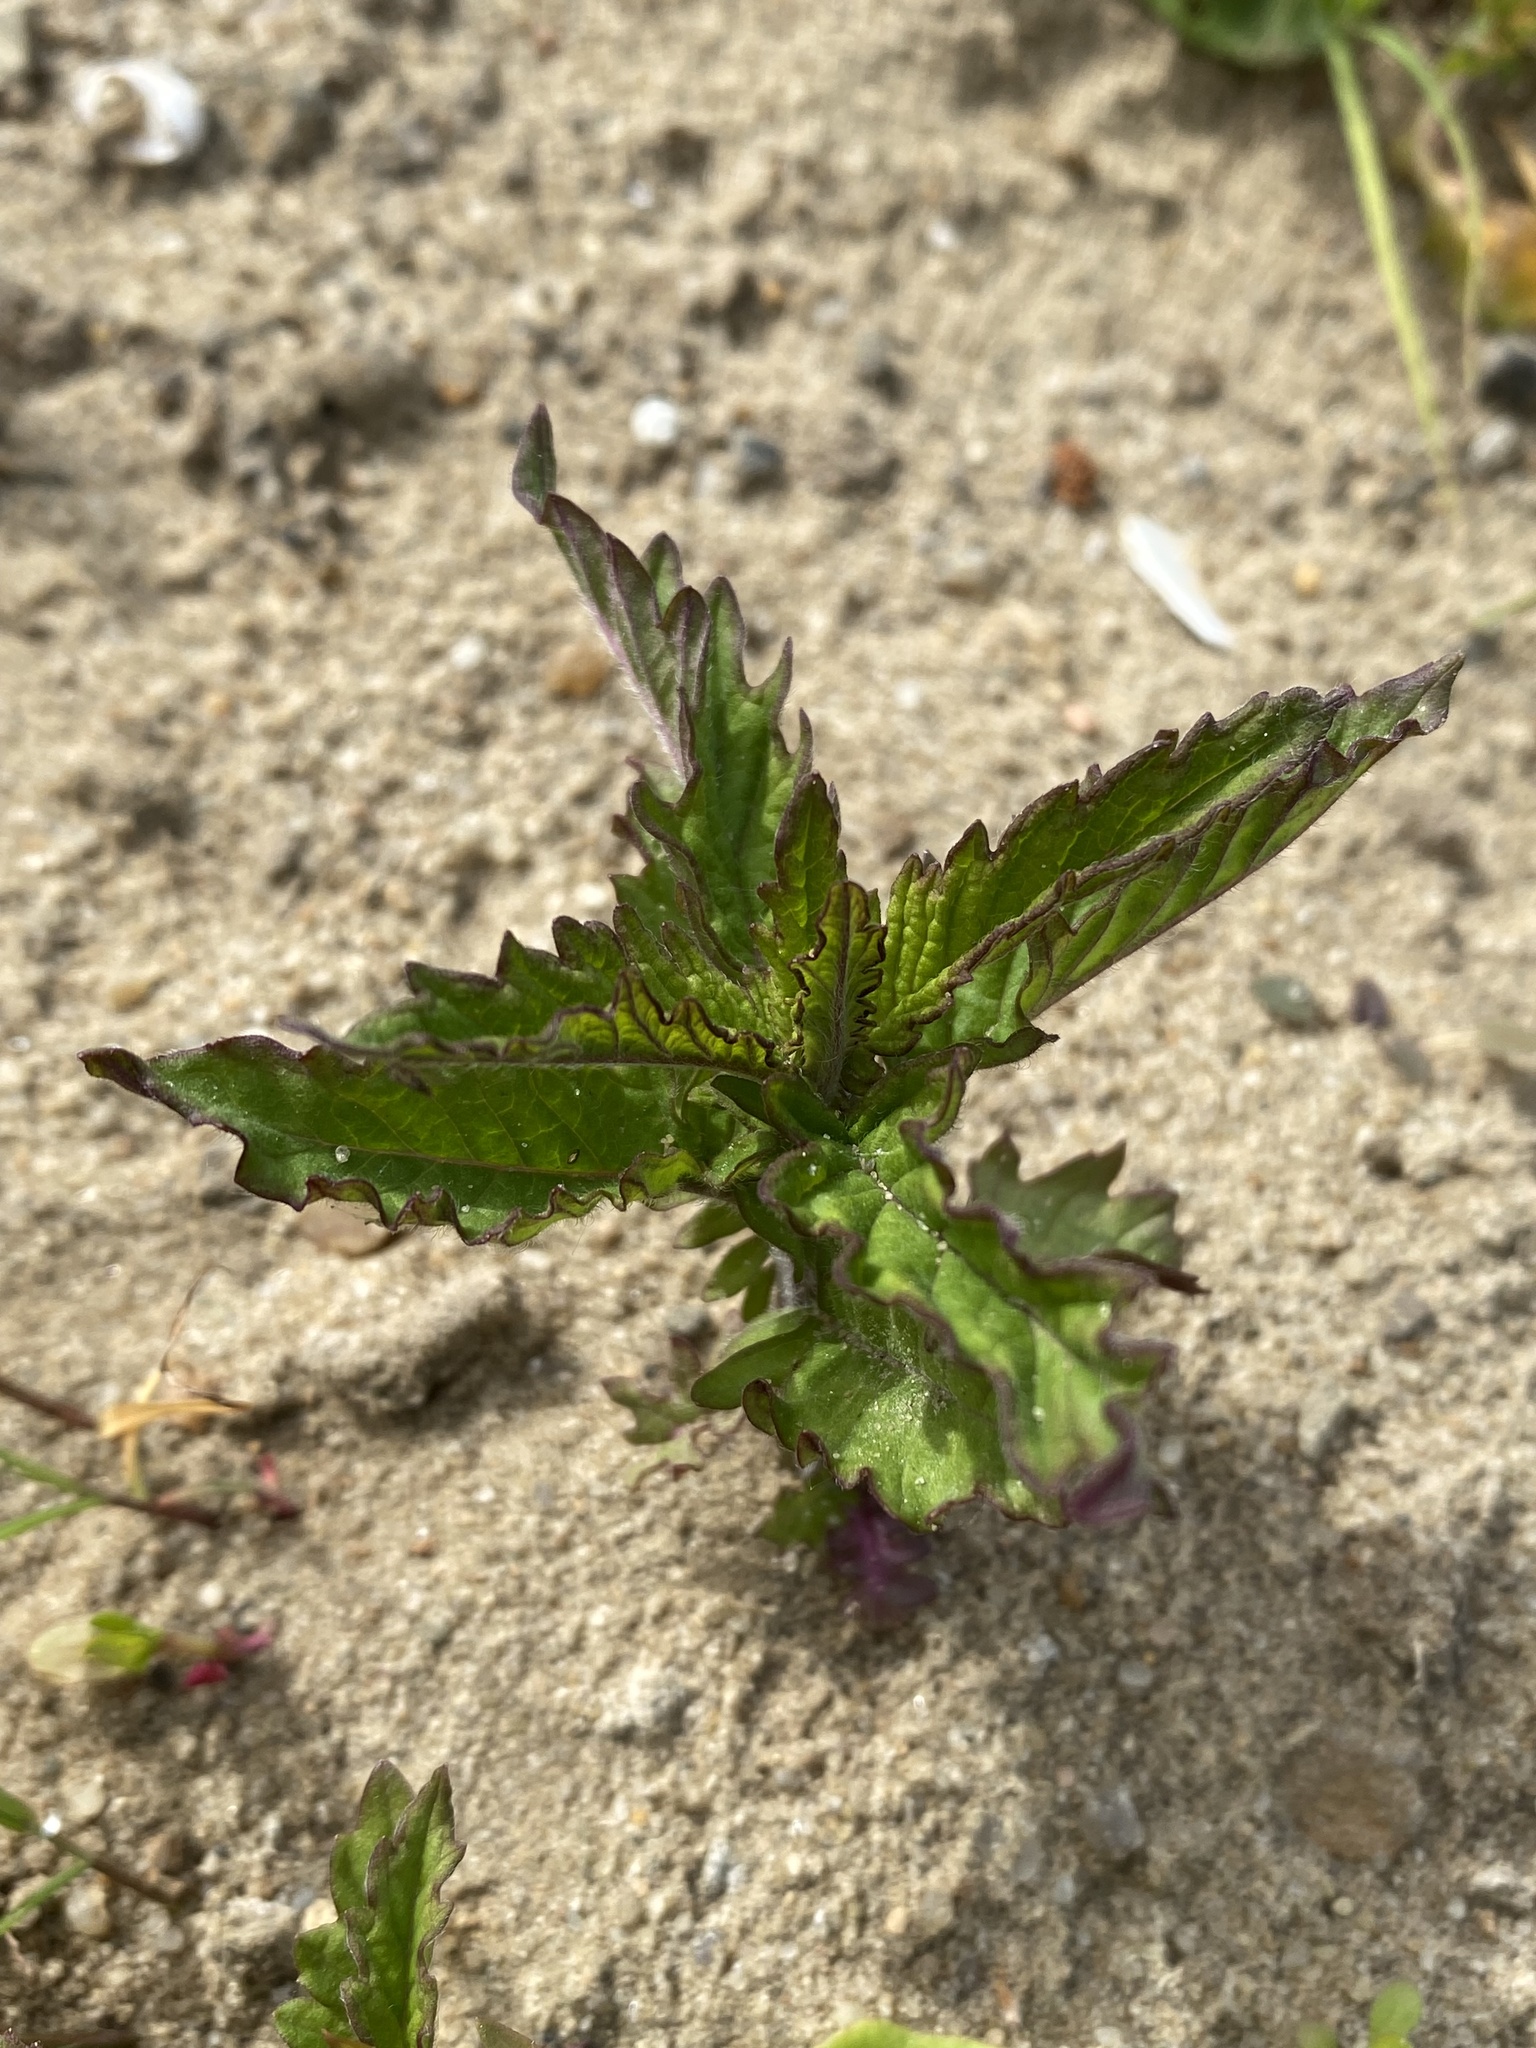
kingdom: Plantae
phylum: Tracheophyta
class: Magnoliopsida
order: Lamiales
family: Lamiaceae
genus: Lycopus
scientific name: Lycopus europaeus
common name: European bugleweed
